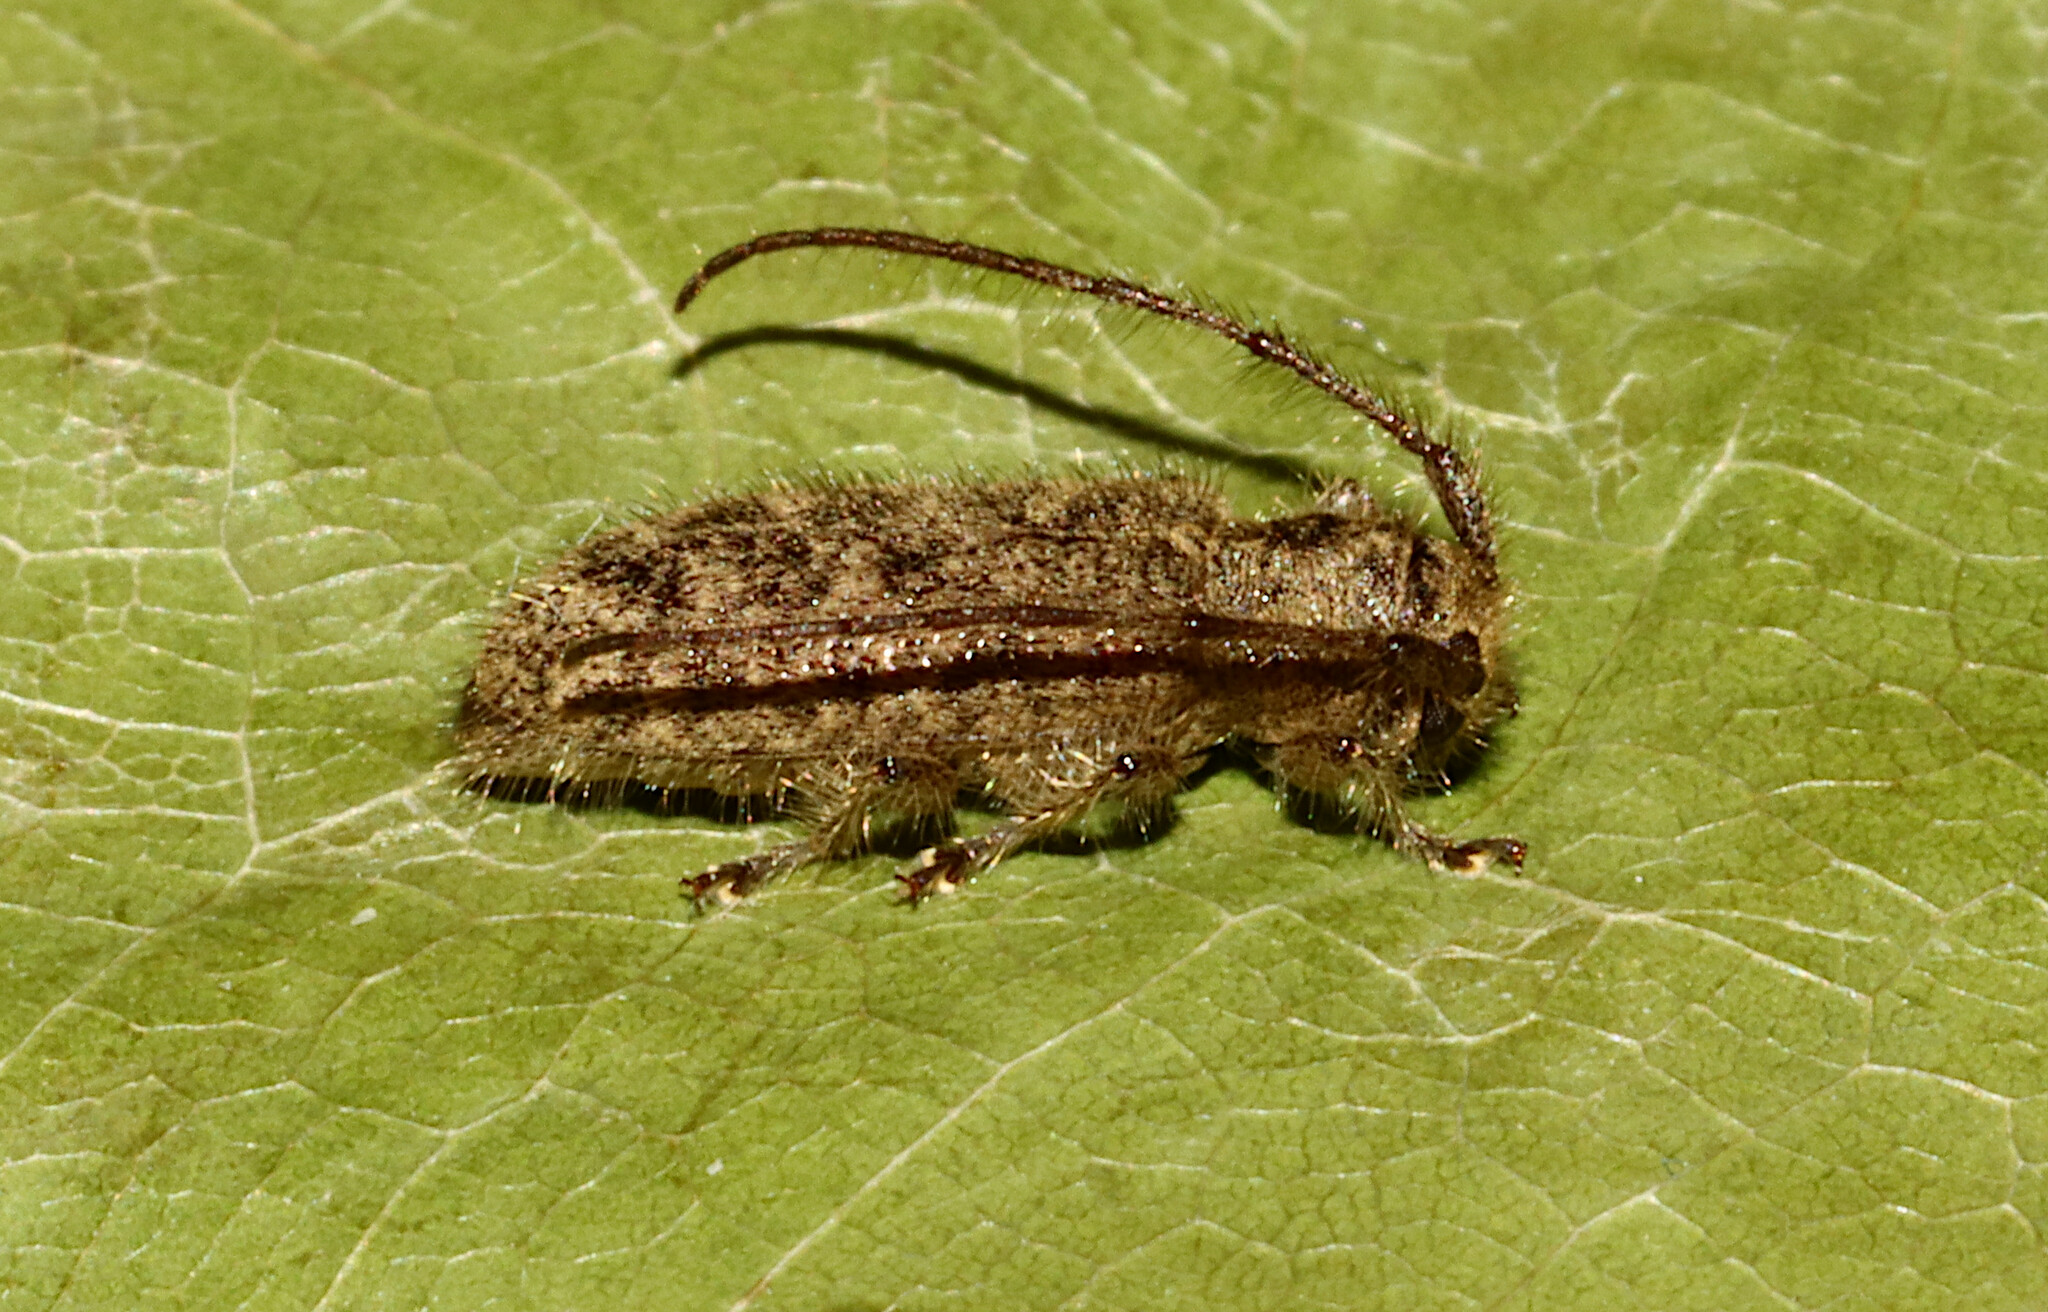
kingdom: Animalia
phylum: Arthropoda
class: Insecta
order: Coleoptera
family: Cerambycidae
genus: Eupogonius
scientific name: Eupogonius pauper
